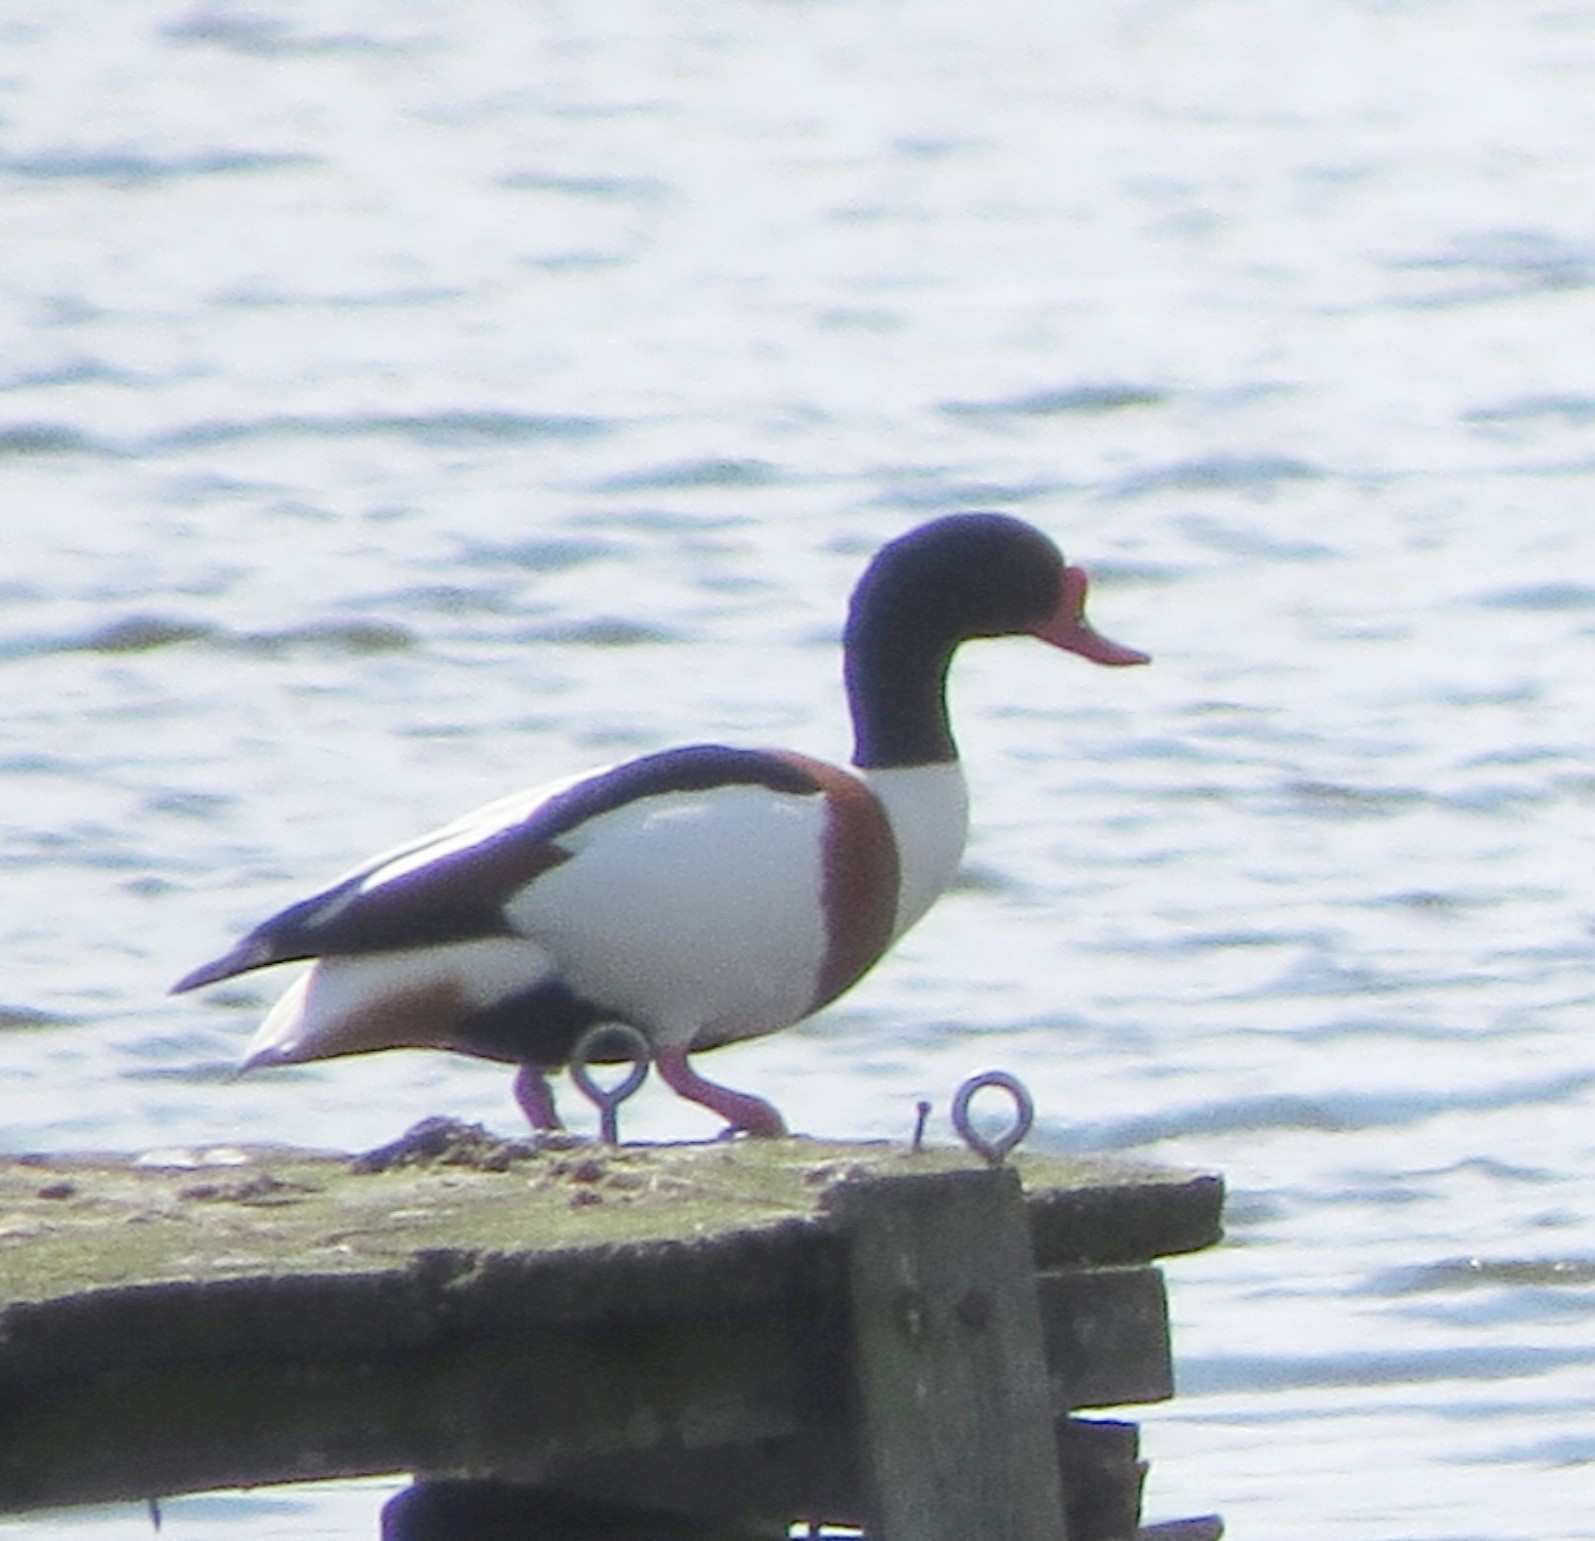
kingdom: Animalia
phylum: Chordata
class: Aves
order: Anseriformes
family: Anatidae
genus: Tadorna
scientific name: Tadorna tadorna
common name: Common shelduck
